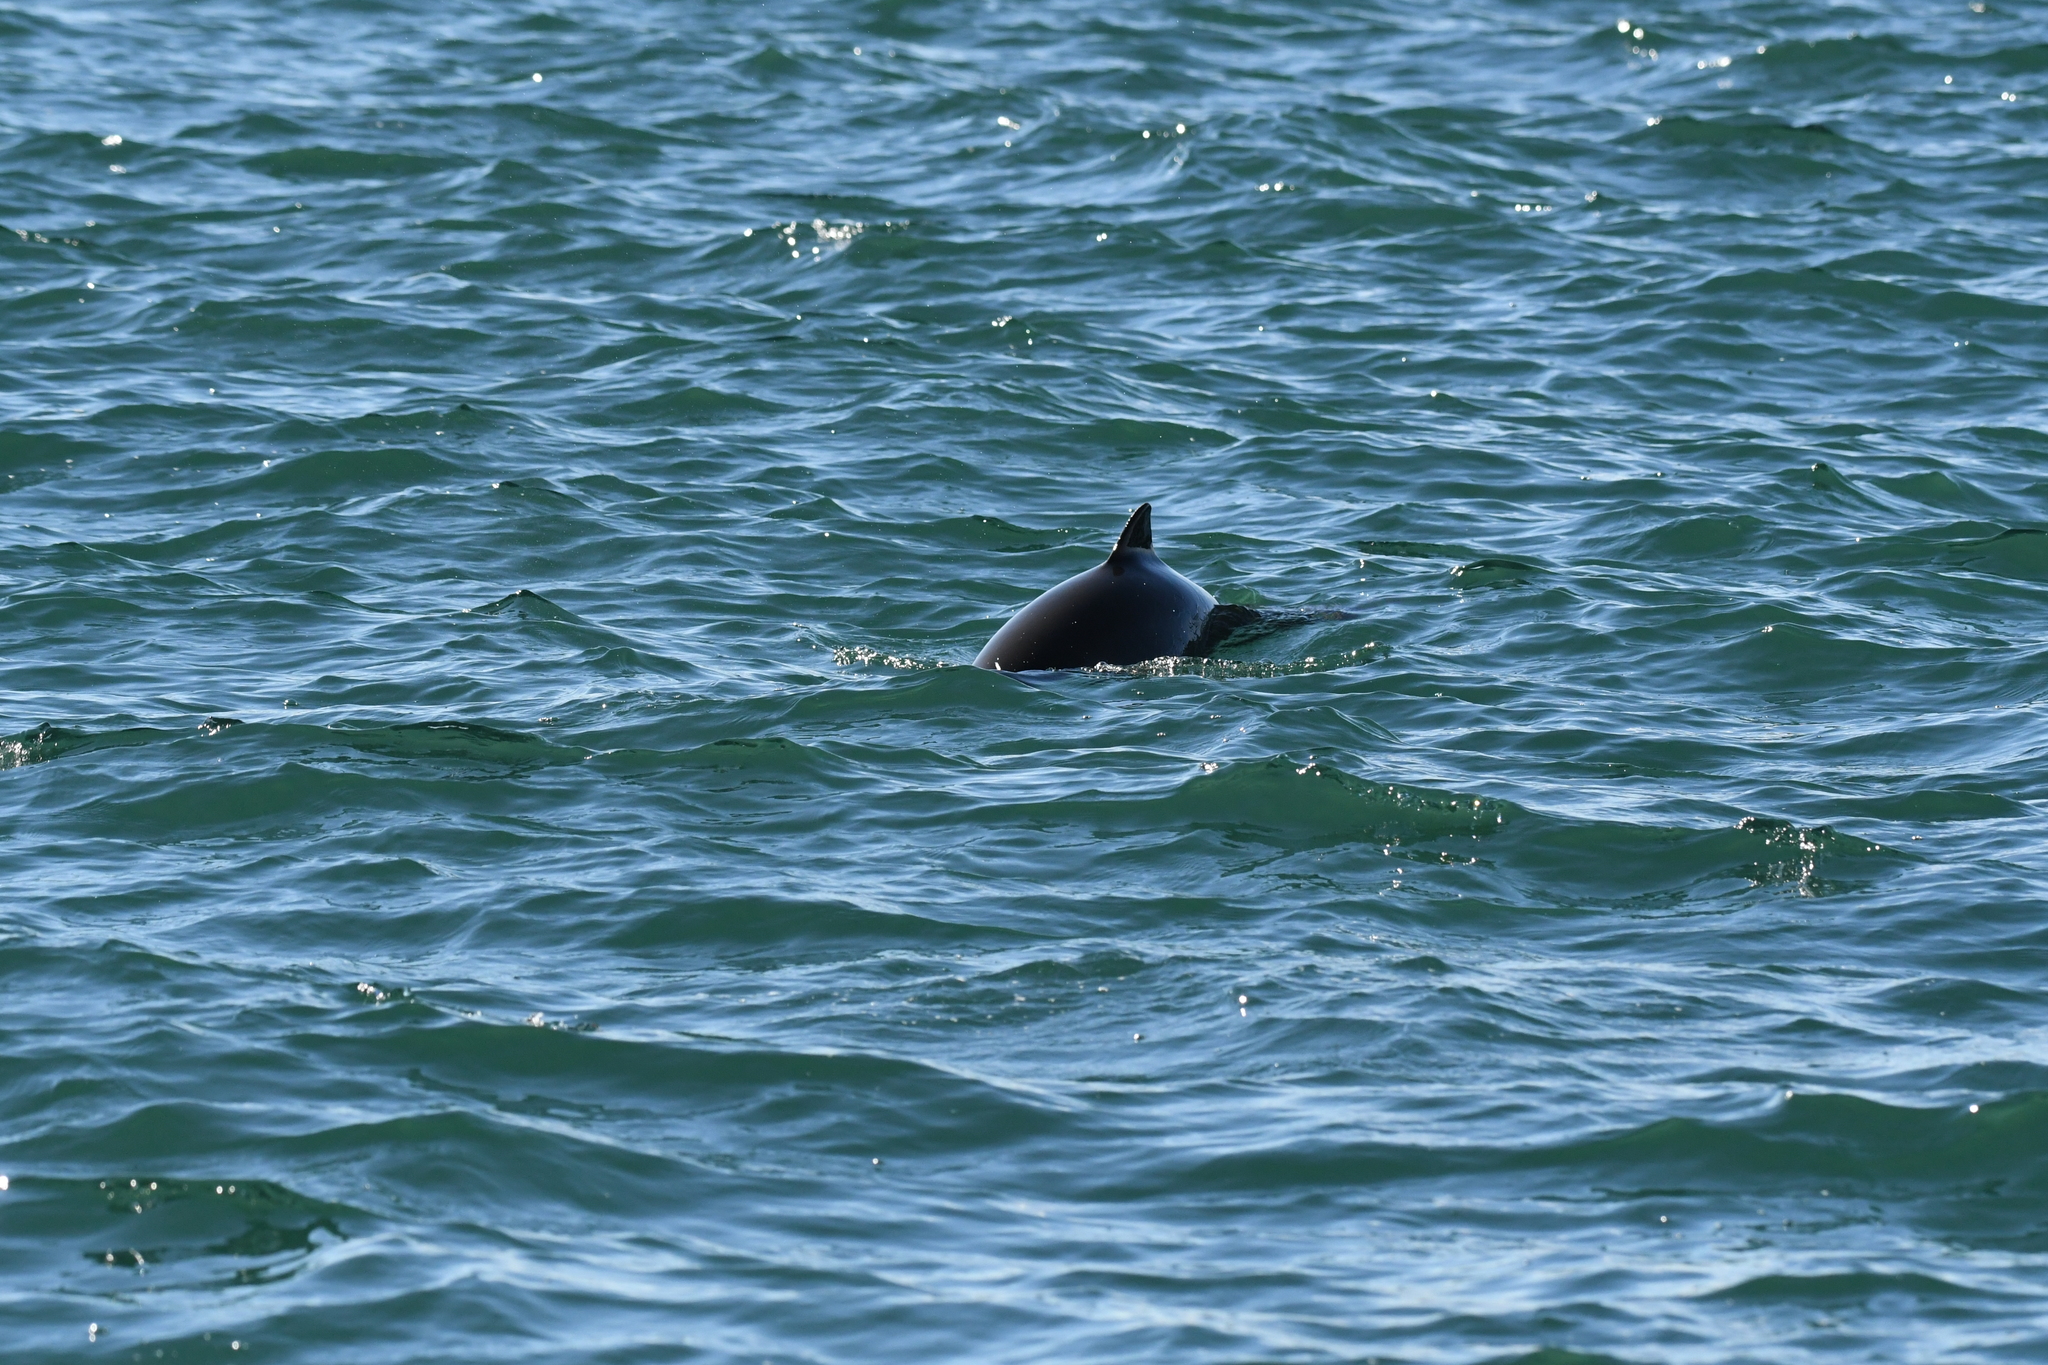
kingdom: Animalia
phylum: Chordata
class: Mammalia
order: Cetacea
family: Phocoenidae
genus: Phocoena
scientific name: Phocoena phocoena
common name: Harbor porpoise
